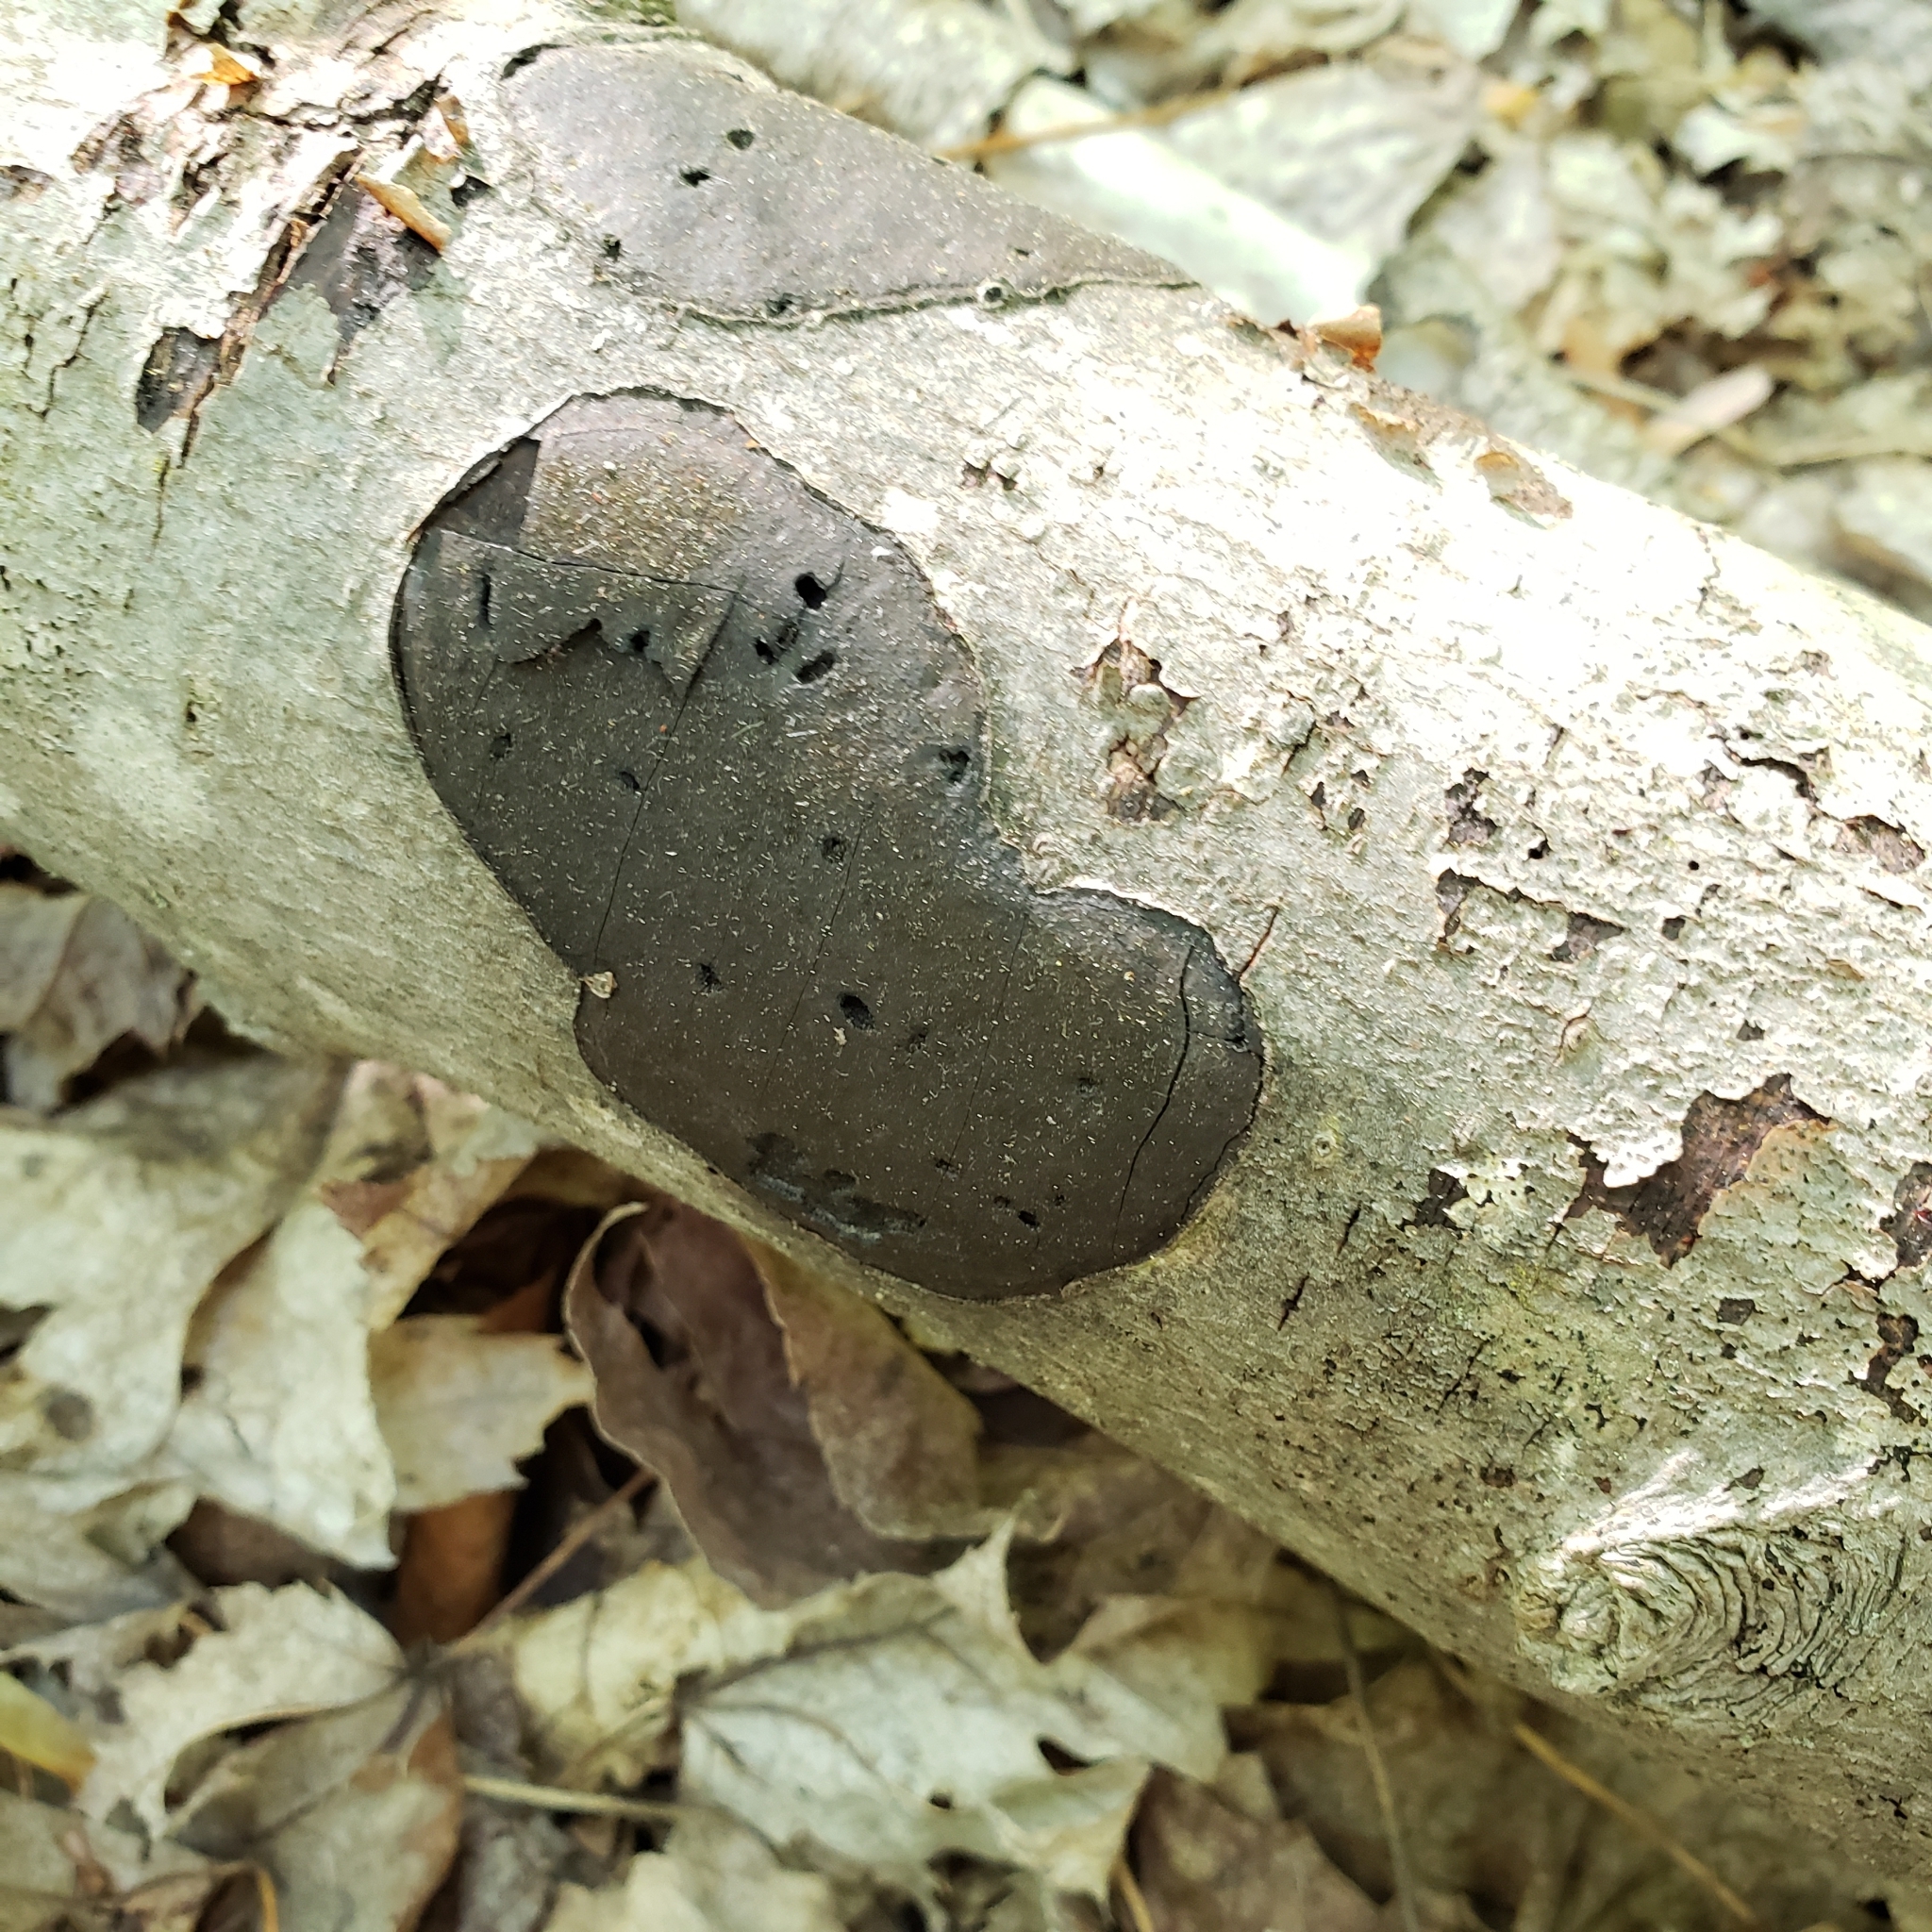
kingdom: Fungi
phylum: Ascomycota
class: Sordariomycetes
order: Xylariales
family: Graphostromataceae
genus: Biscogniauxia
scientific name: Biscogniauxia nummularia
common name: Beech tarcrust
